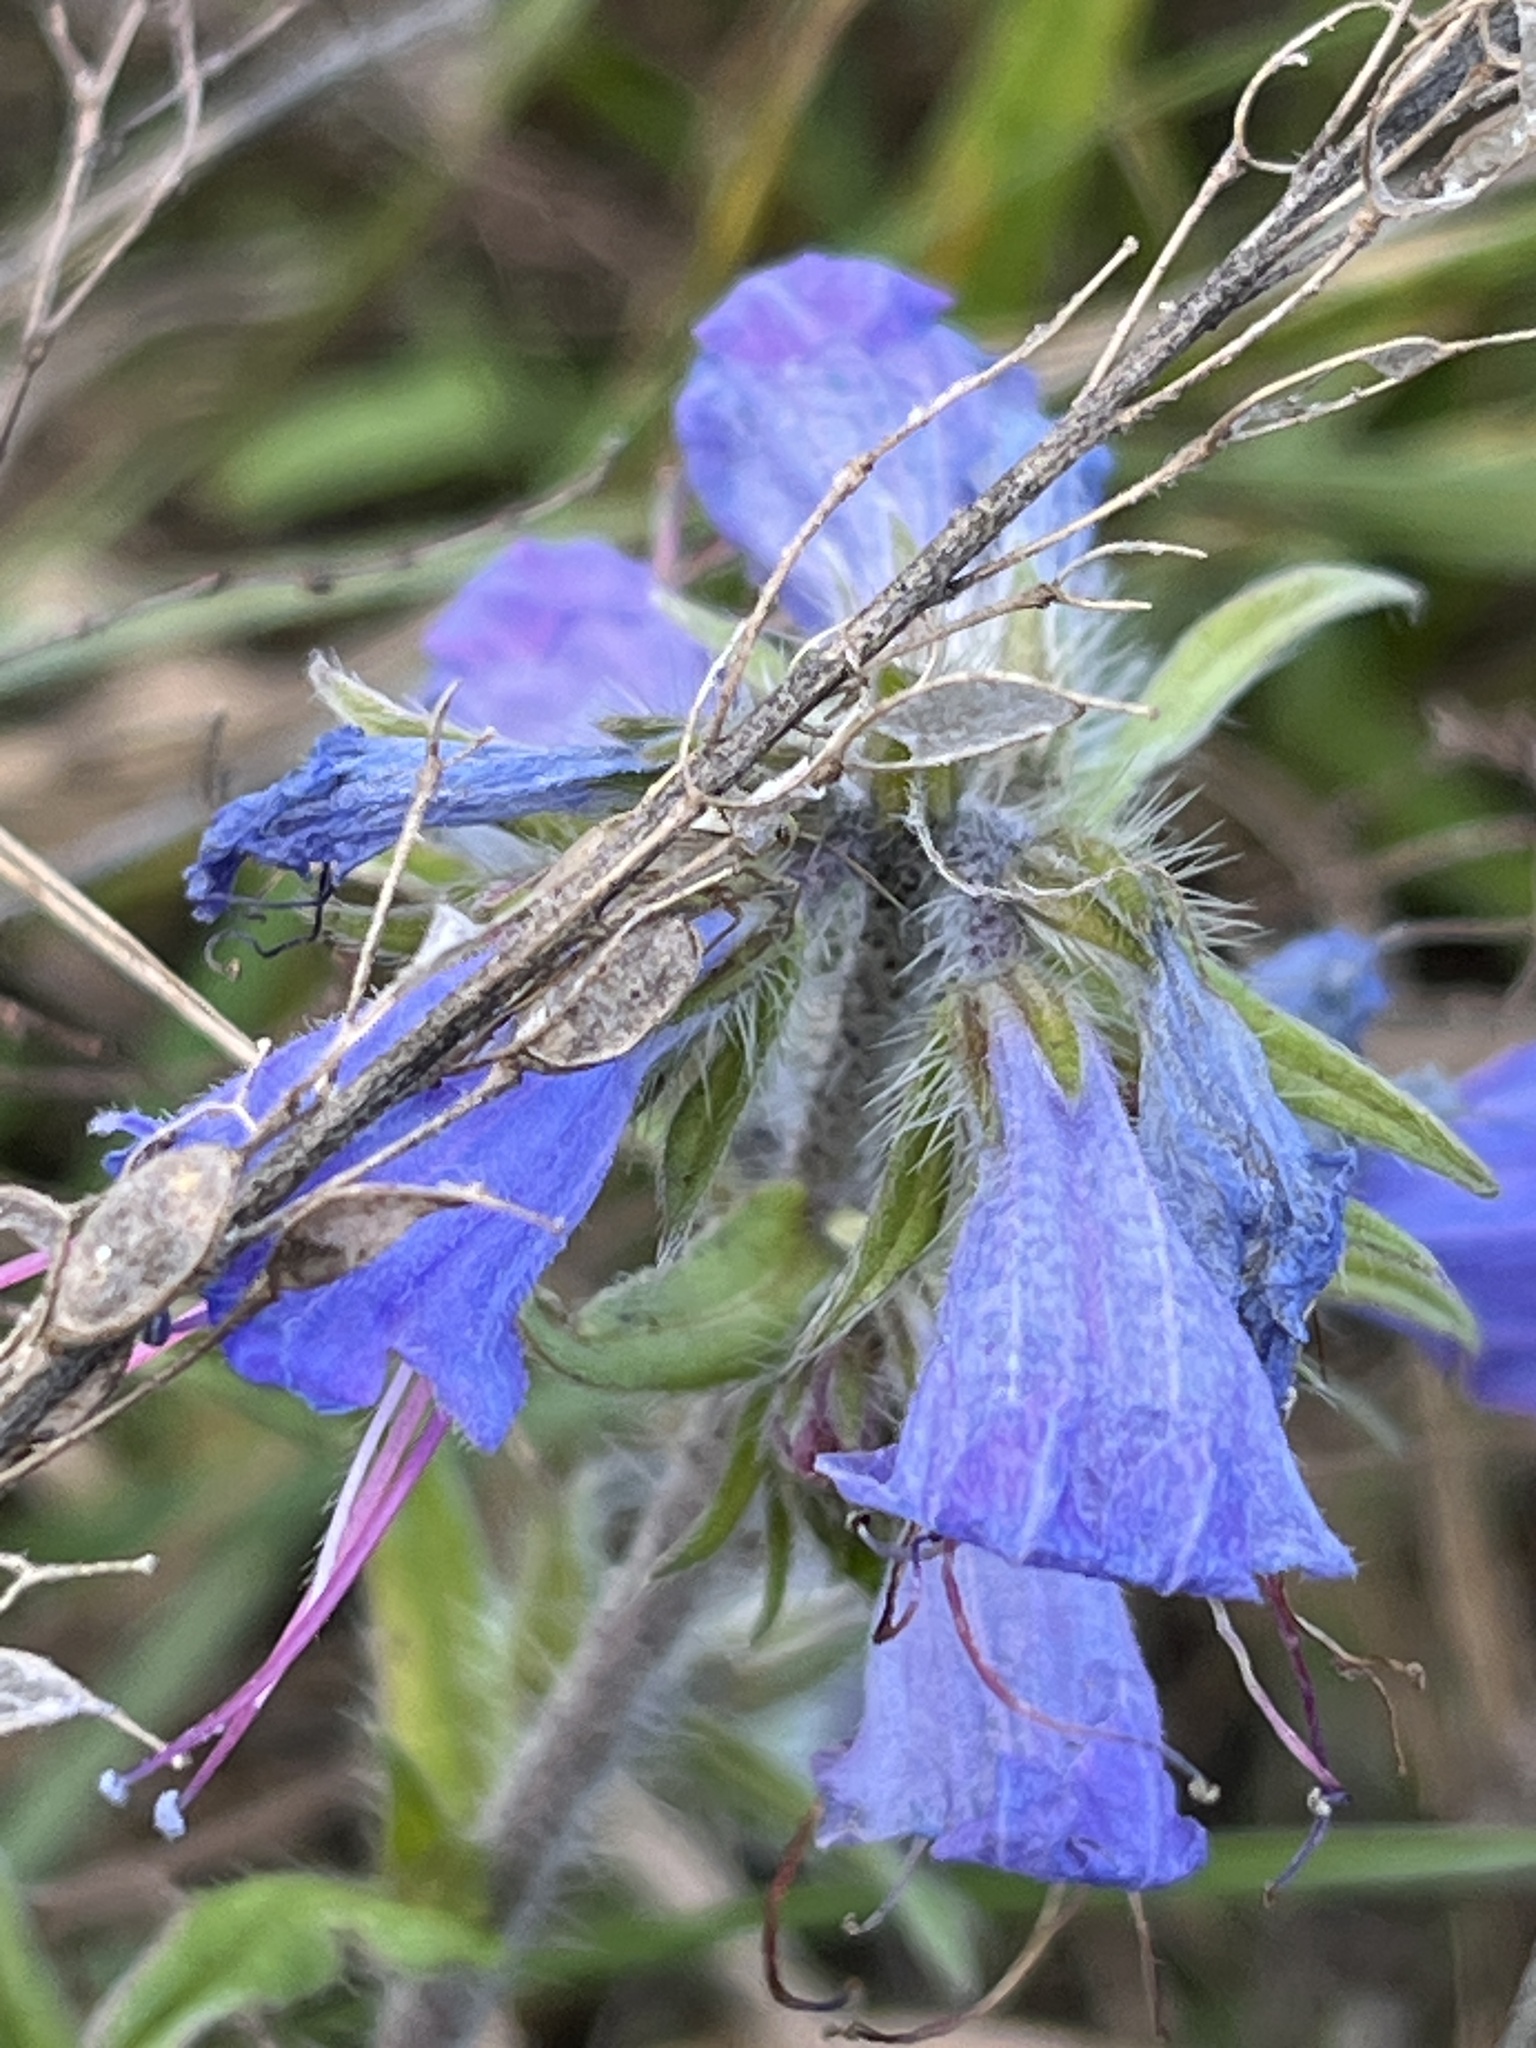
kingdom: Plantae
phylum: Tracheophyta
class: Magnoliopsida
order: Boraginales
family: Boraginaceae
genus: Echium
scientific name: Echium vulgare
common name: Common viper's bugloss
